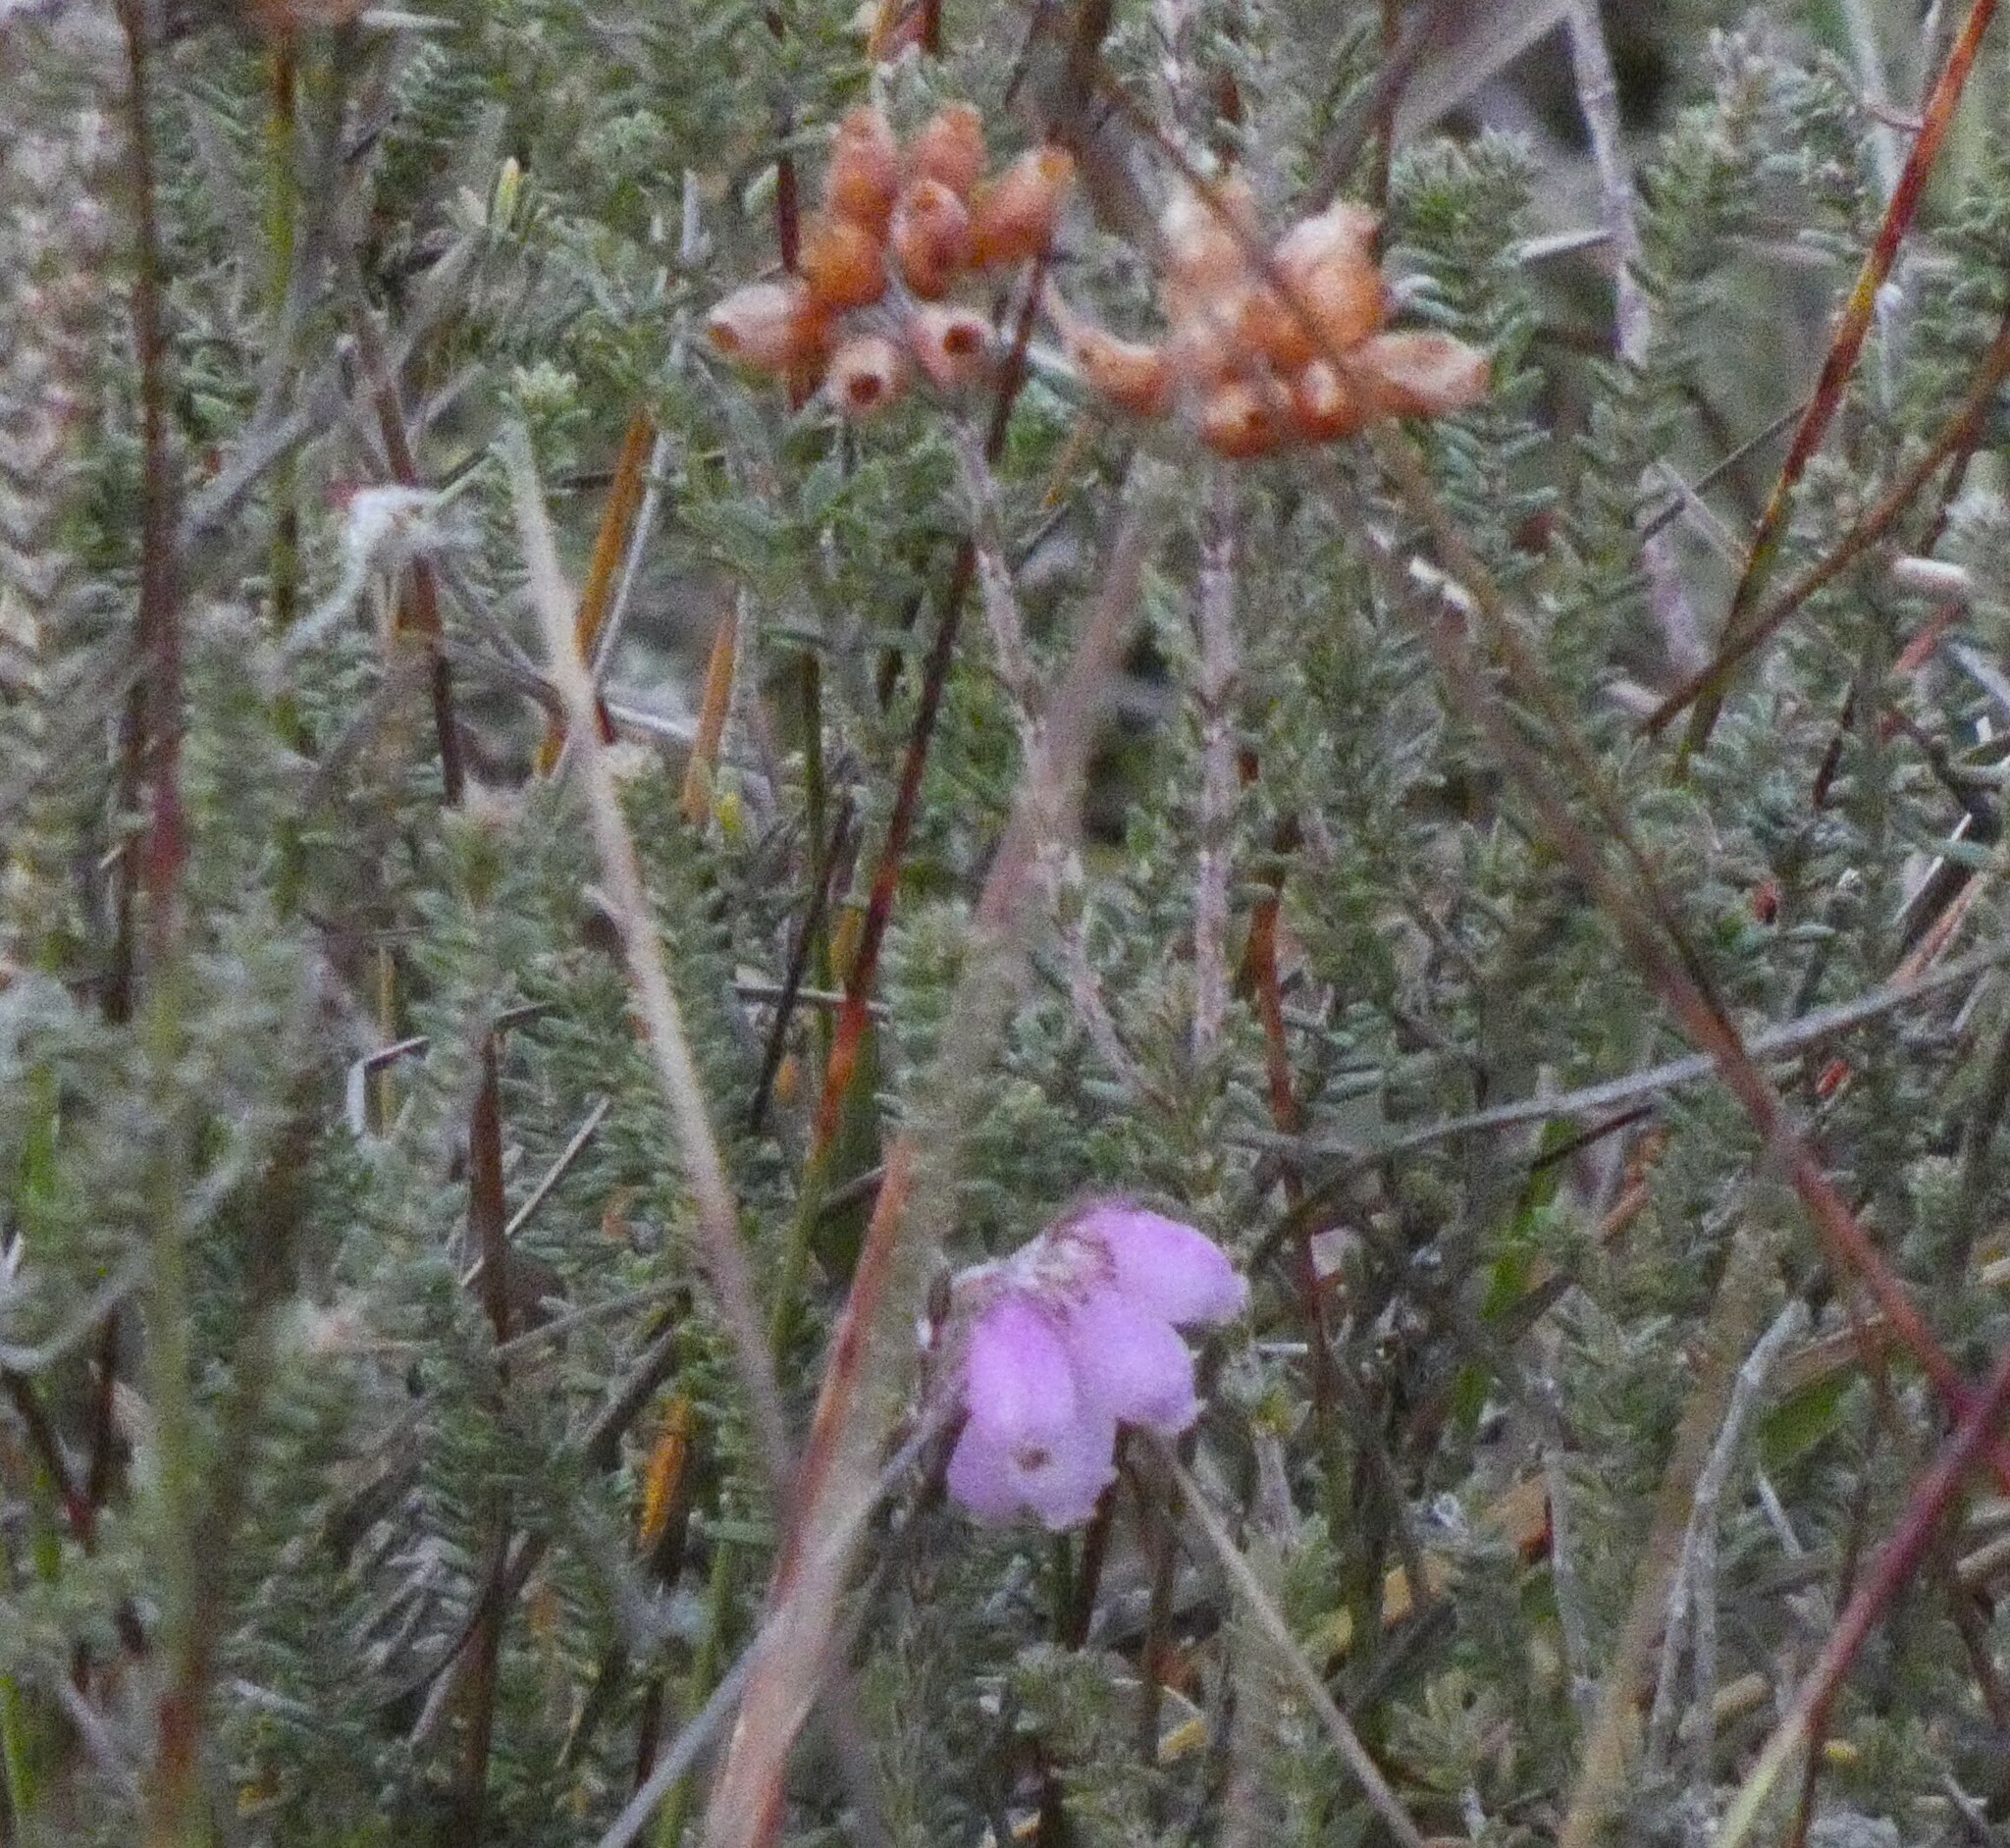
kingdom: Plantae
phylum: Tracheophyta
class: Magnoliopsida
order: Ericales
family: Ericaceae
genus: Erica
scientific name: Erica tetralix
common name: Cross-leaved heath
